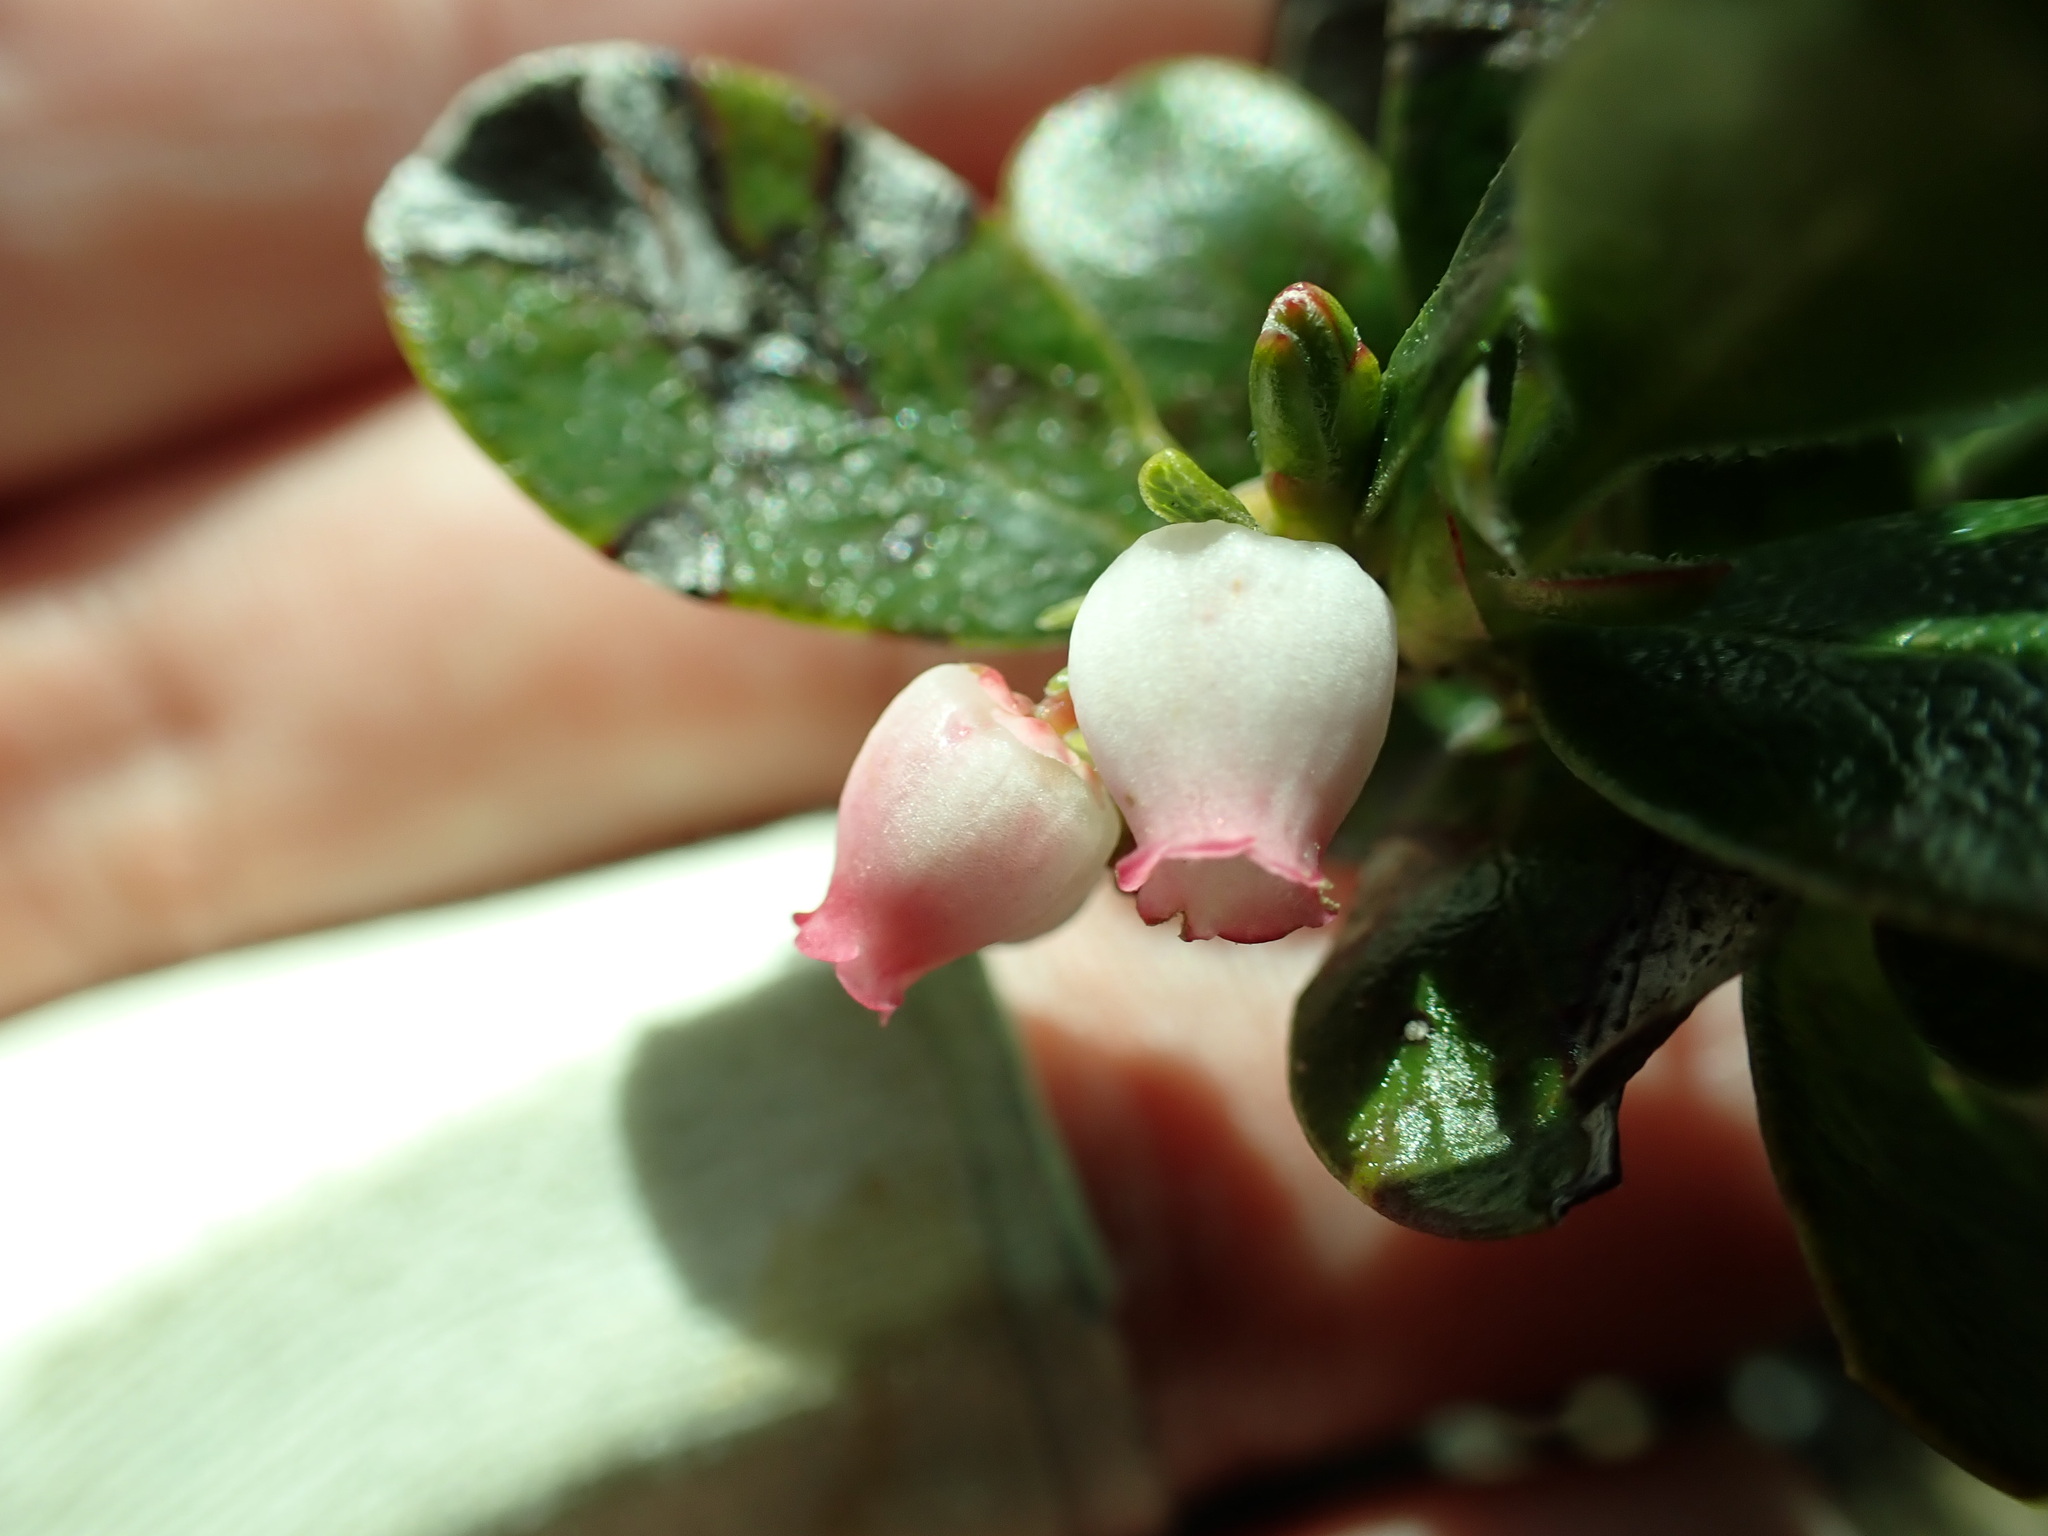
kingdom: Plantae
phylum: Tracheophyta
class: Magnoliopsida
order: Ericales
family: Ericaceae
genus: Arctostaphylos
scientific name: Arctostaphylos uva-ursi
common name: Bearberry
